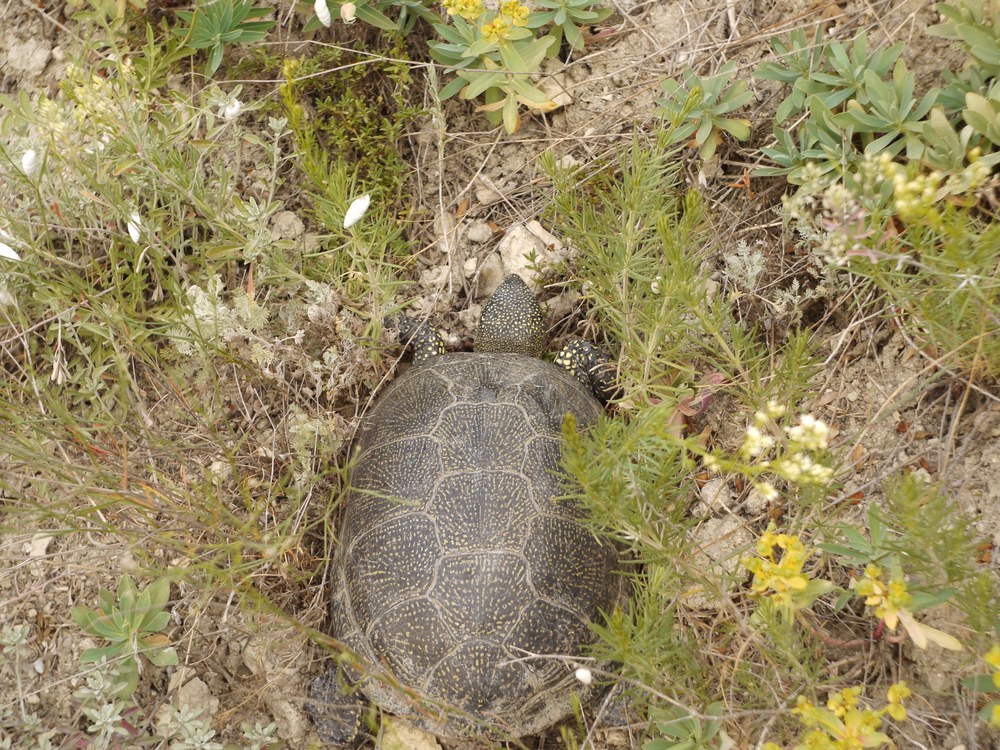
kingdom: Animalia
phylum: Chordata
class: Testudines
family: Emydidae
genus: Emys
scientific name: Emys orbicularis
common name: European pond turtle
